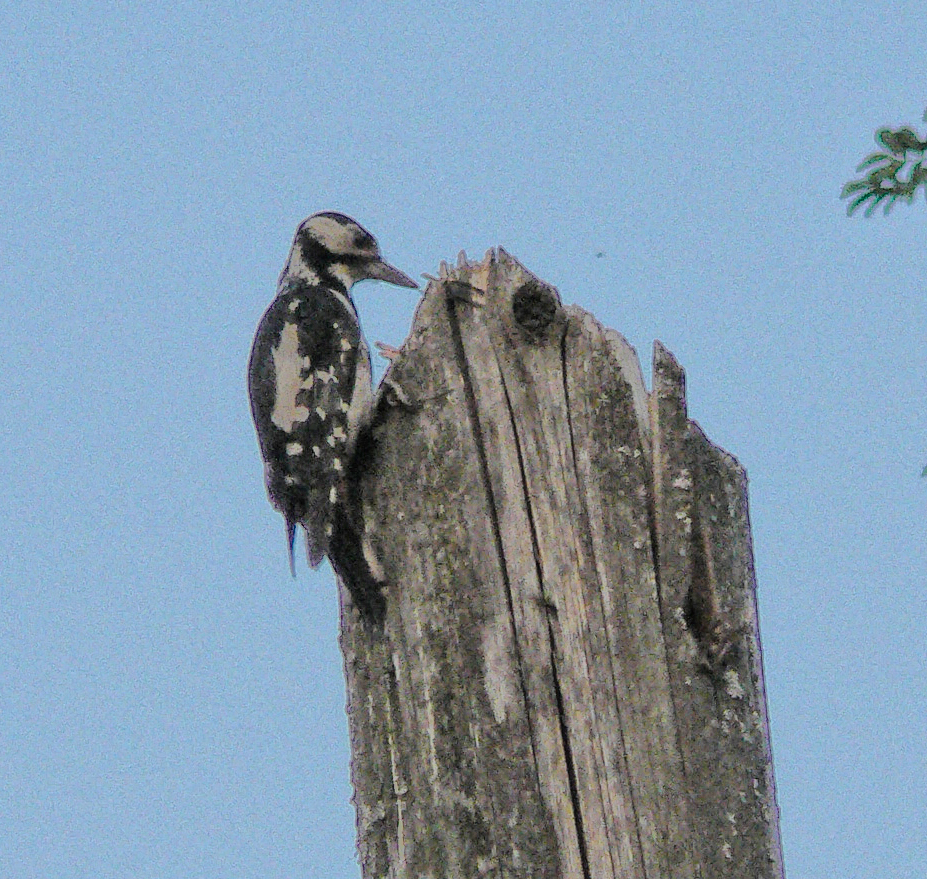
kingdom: Animalia
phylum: Chordata
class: Aves
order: Piciformes
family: Picidae
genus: Dendrocopos
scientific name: Dendrocopos major
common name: Great spotted woodpecker
